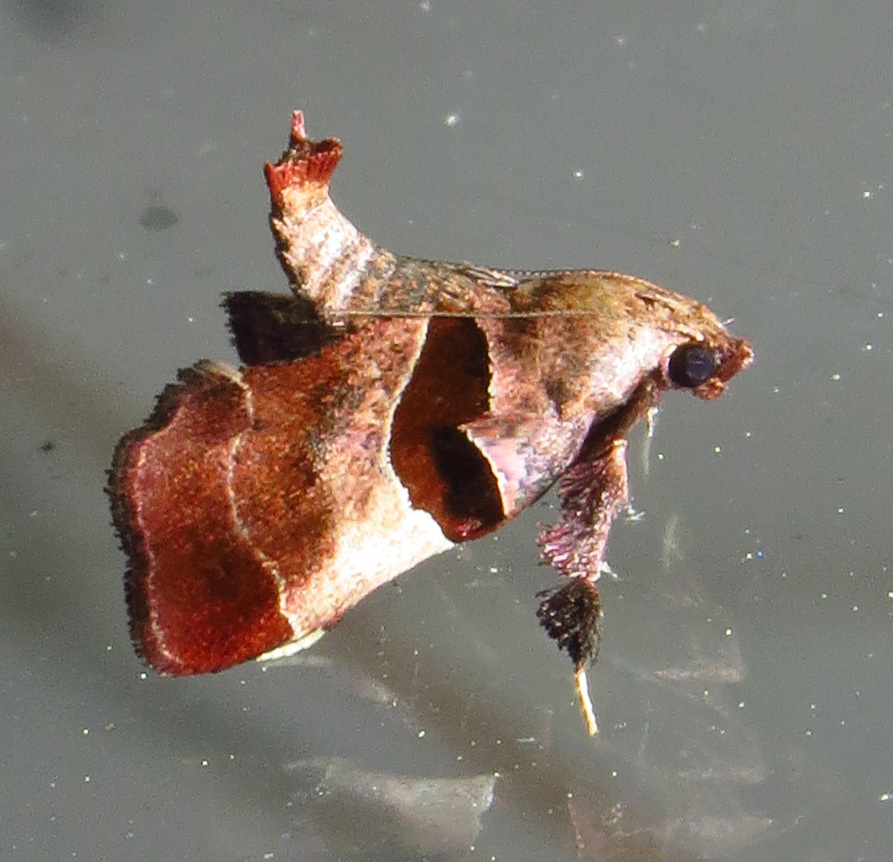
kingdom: Animalia
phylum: Arthropoda
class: Insecta
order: Lepidoptera
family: Pyralidae
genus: Tosale
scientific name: Tosale oviplagalis
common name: Dimorphic tosale moth
